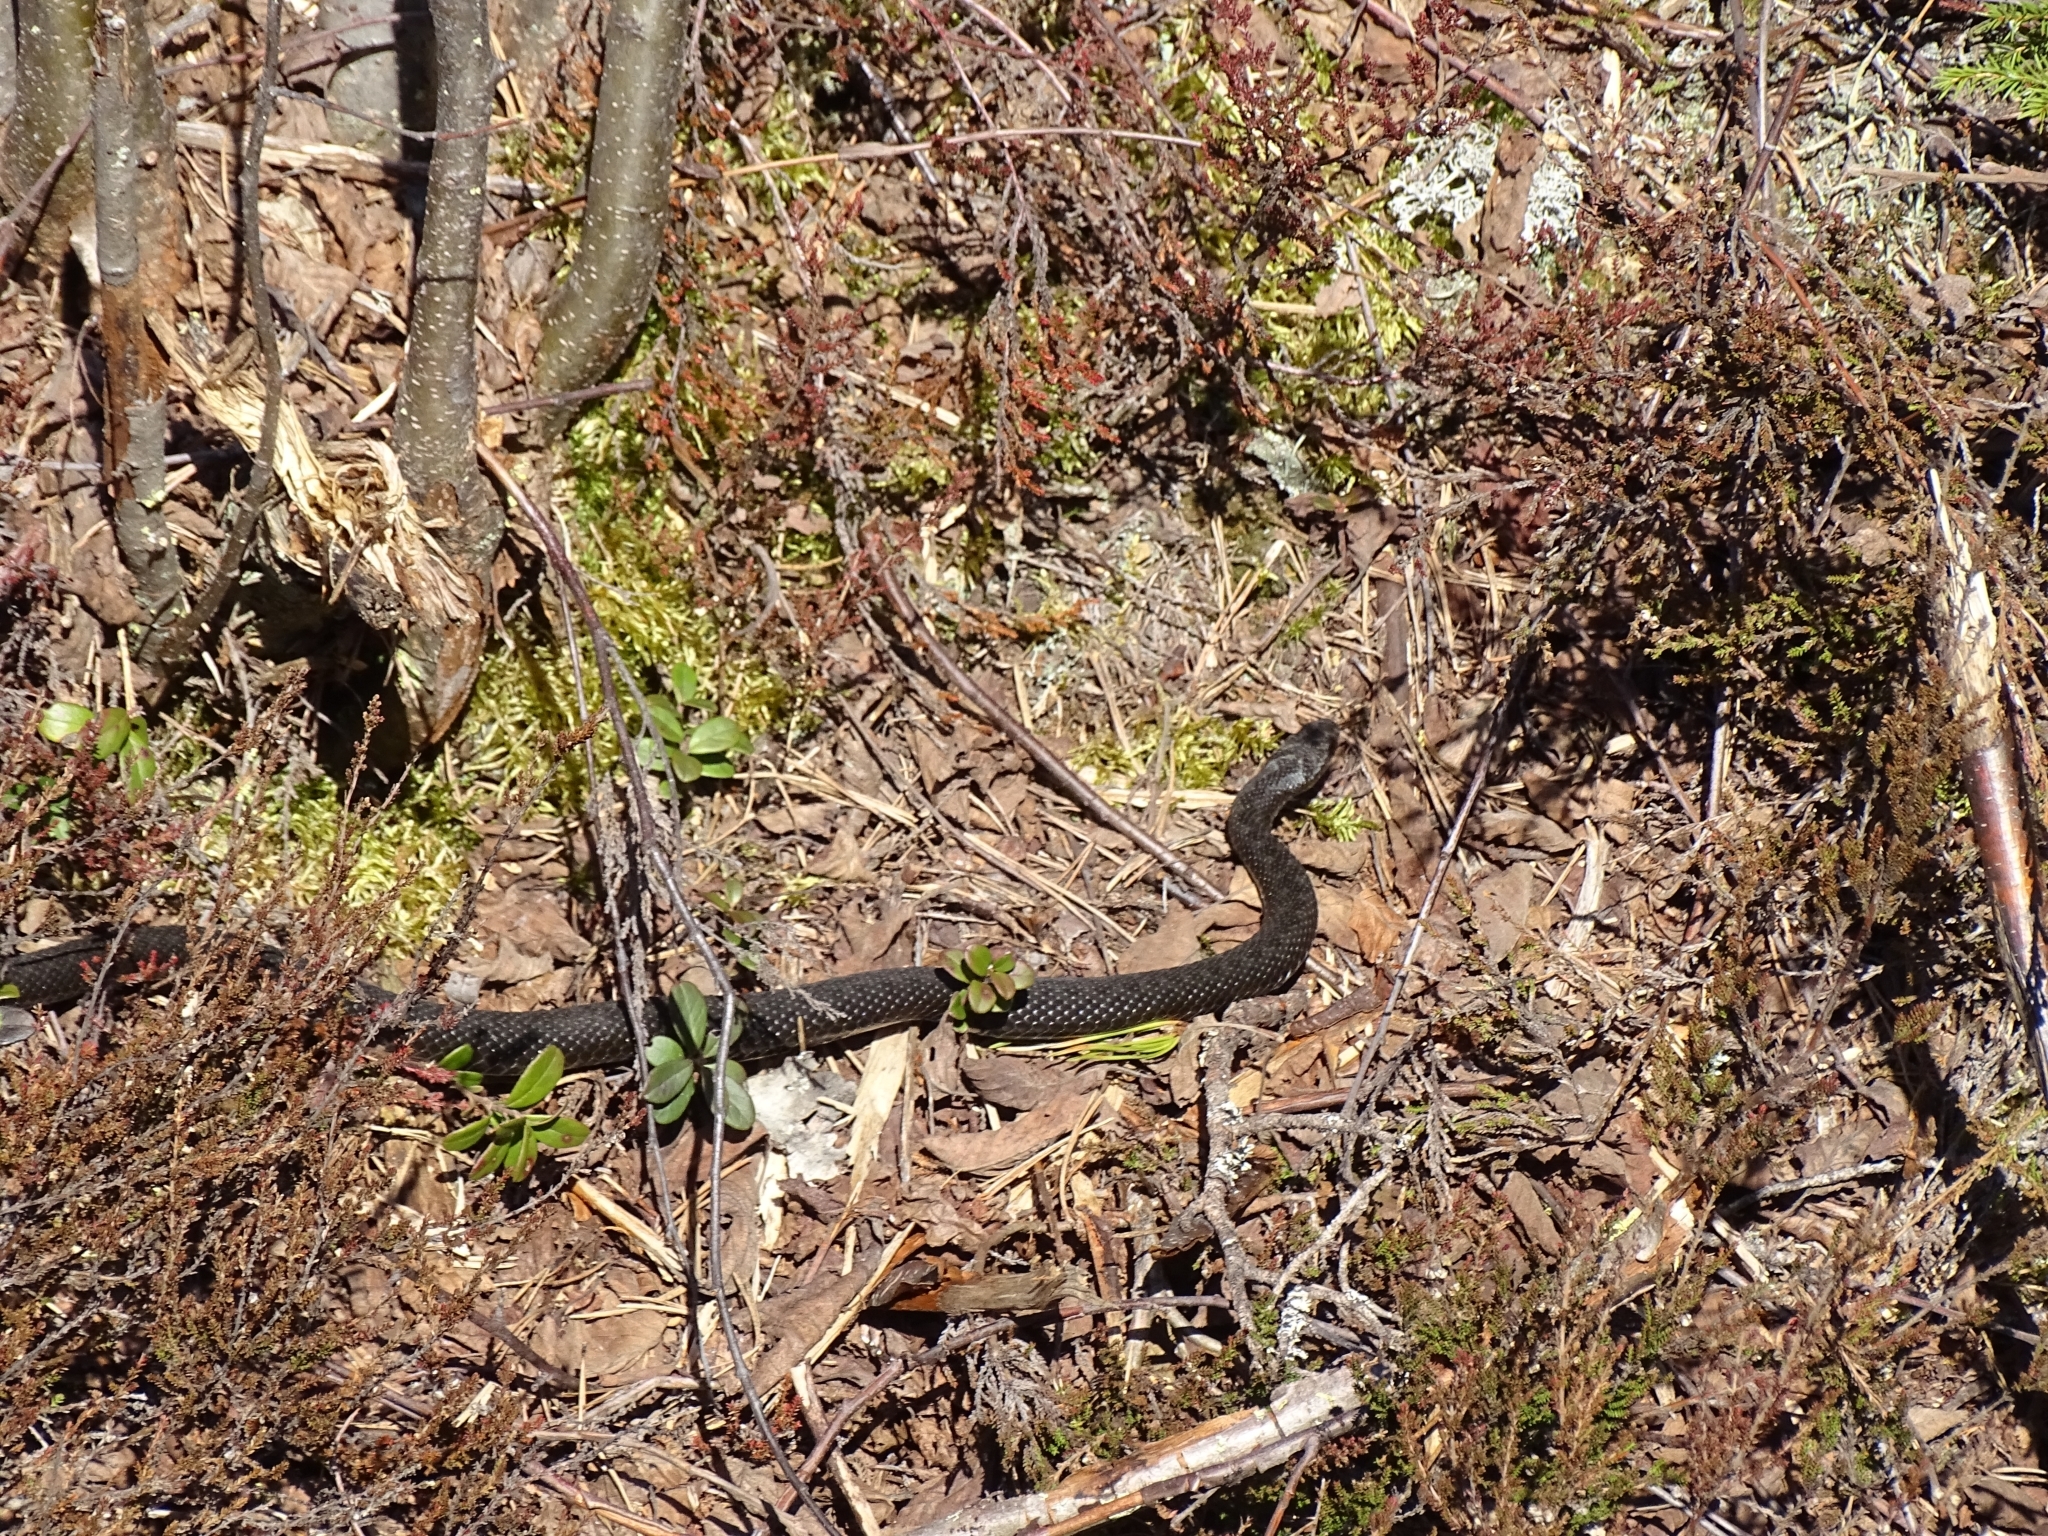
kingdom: Animalia
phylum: Chordata
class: Squamata
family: Viperidae
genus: Vipera
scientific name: Vipera berus
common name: Adder
